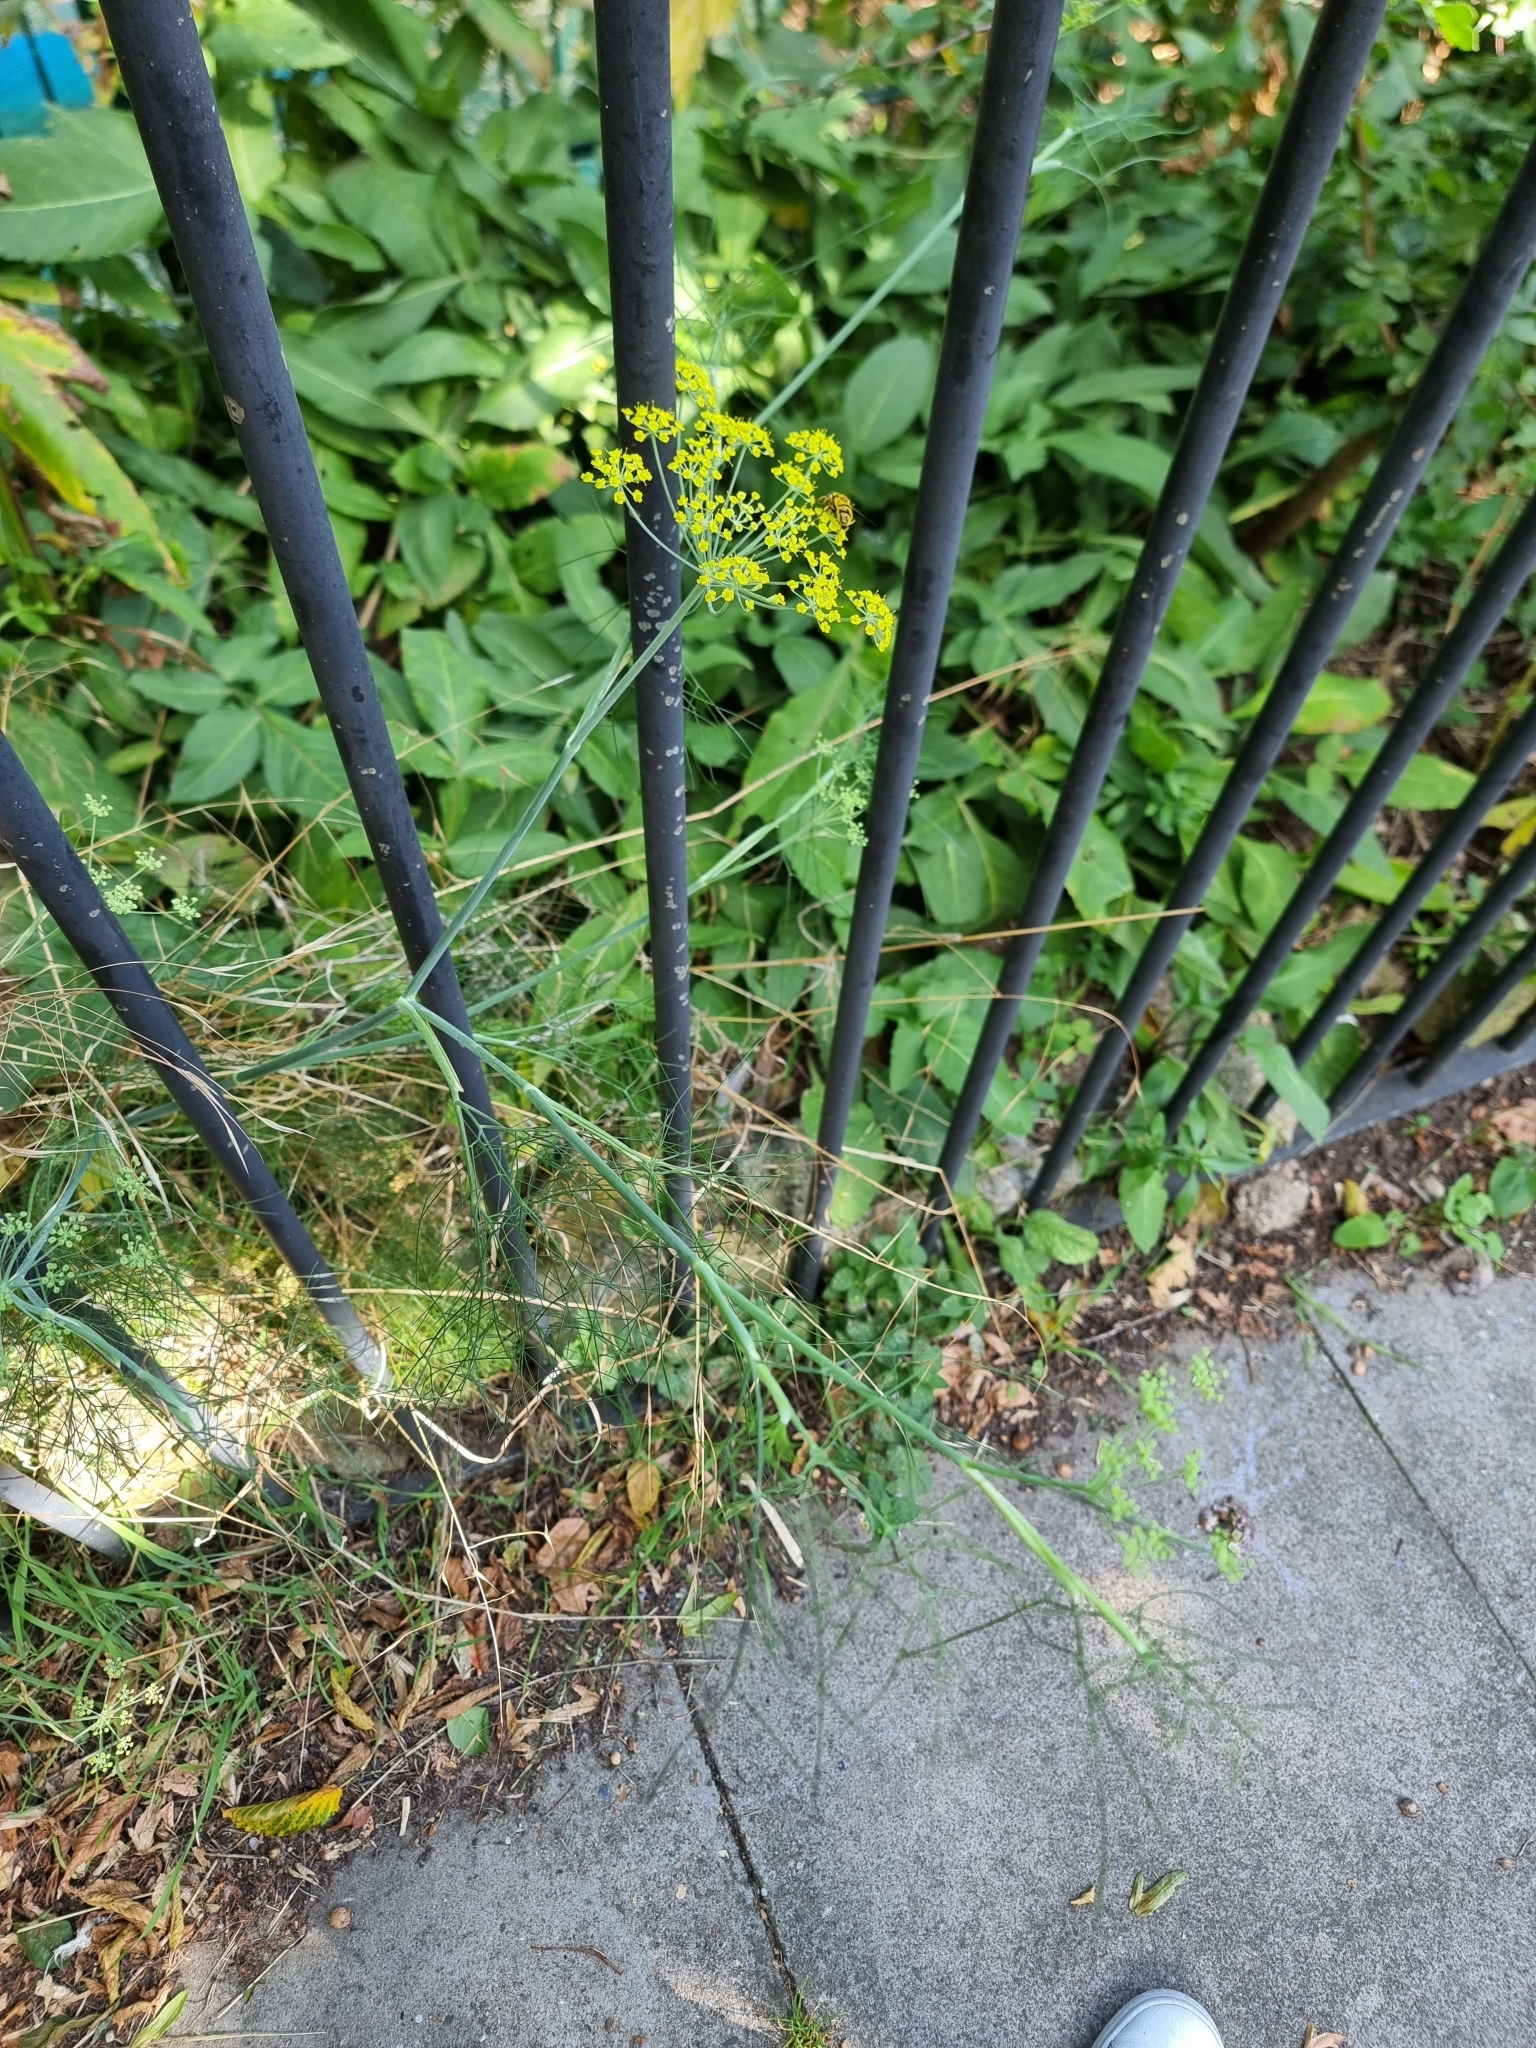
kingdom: Plantae
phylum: Tracheophyta
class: Magnoliopsida
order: Apiales
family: Apiaceae
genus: Foeniculum
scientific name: Foeniculum vulgare
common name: Fennel
